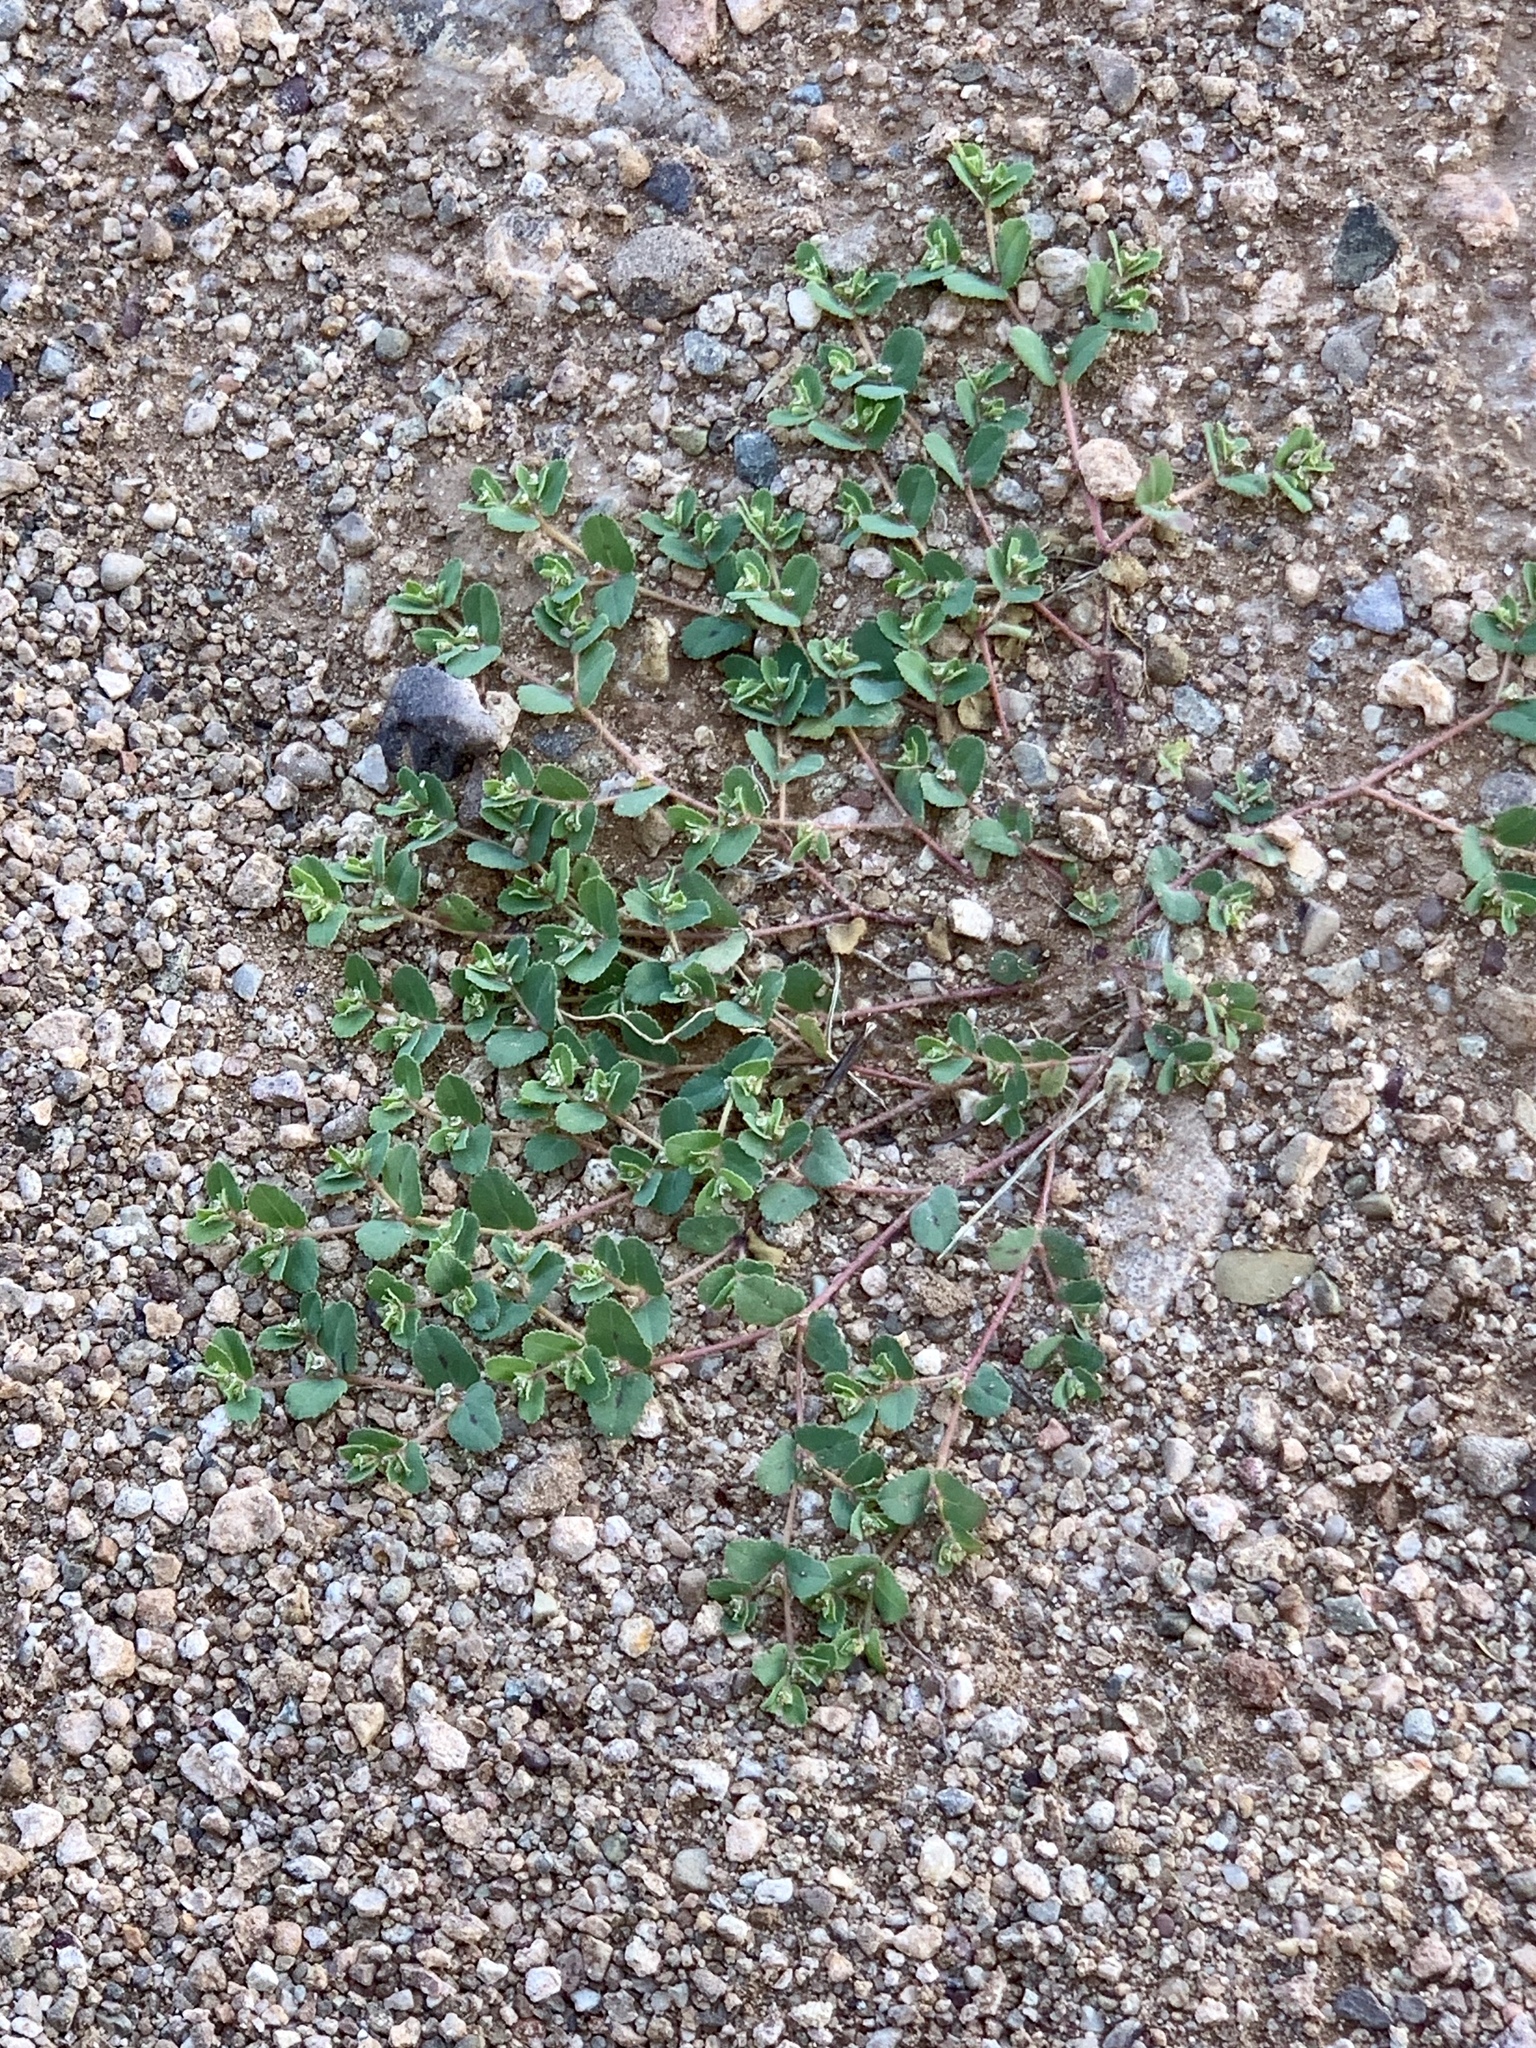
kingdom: Plantae
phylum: Tracheophyta
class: Magnoliopsida
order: Malpighiales
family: Euphorbiaceae
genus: Euphorbia
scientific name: Euphorbia serrula
